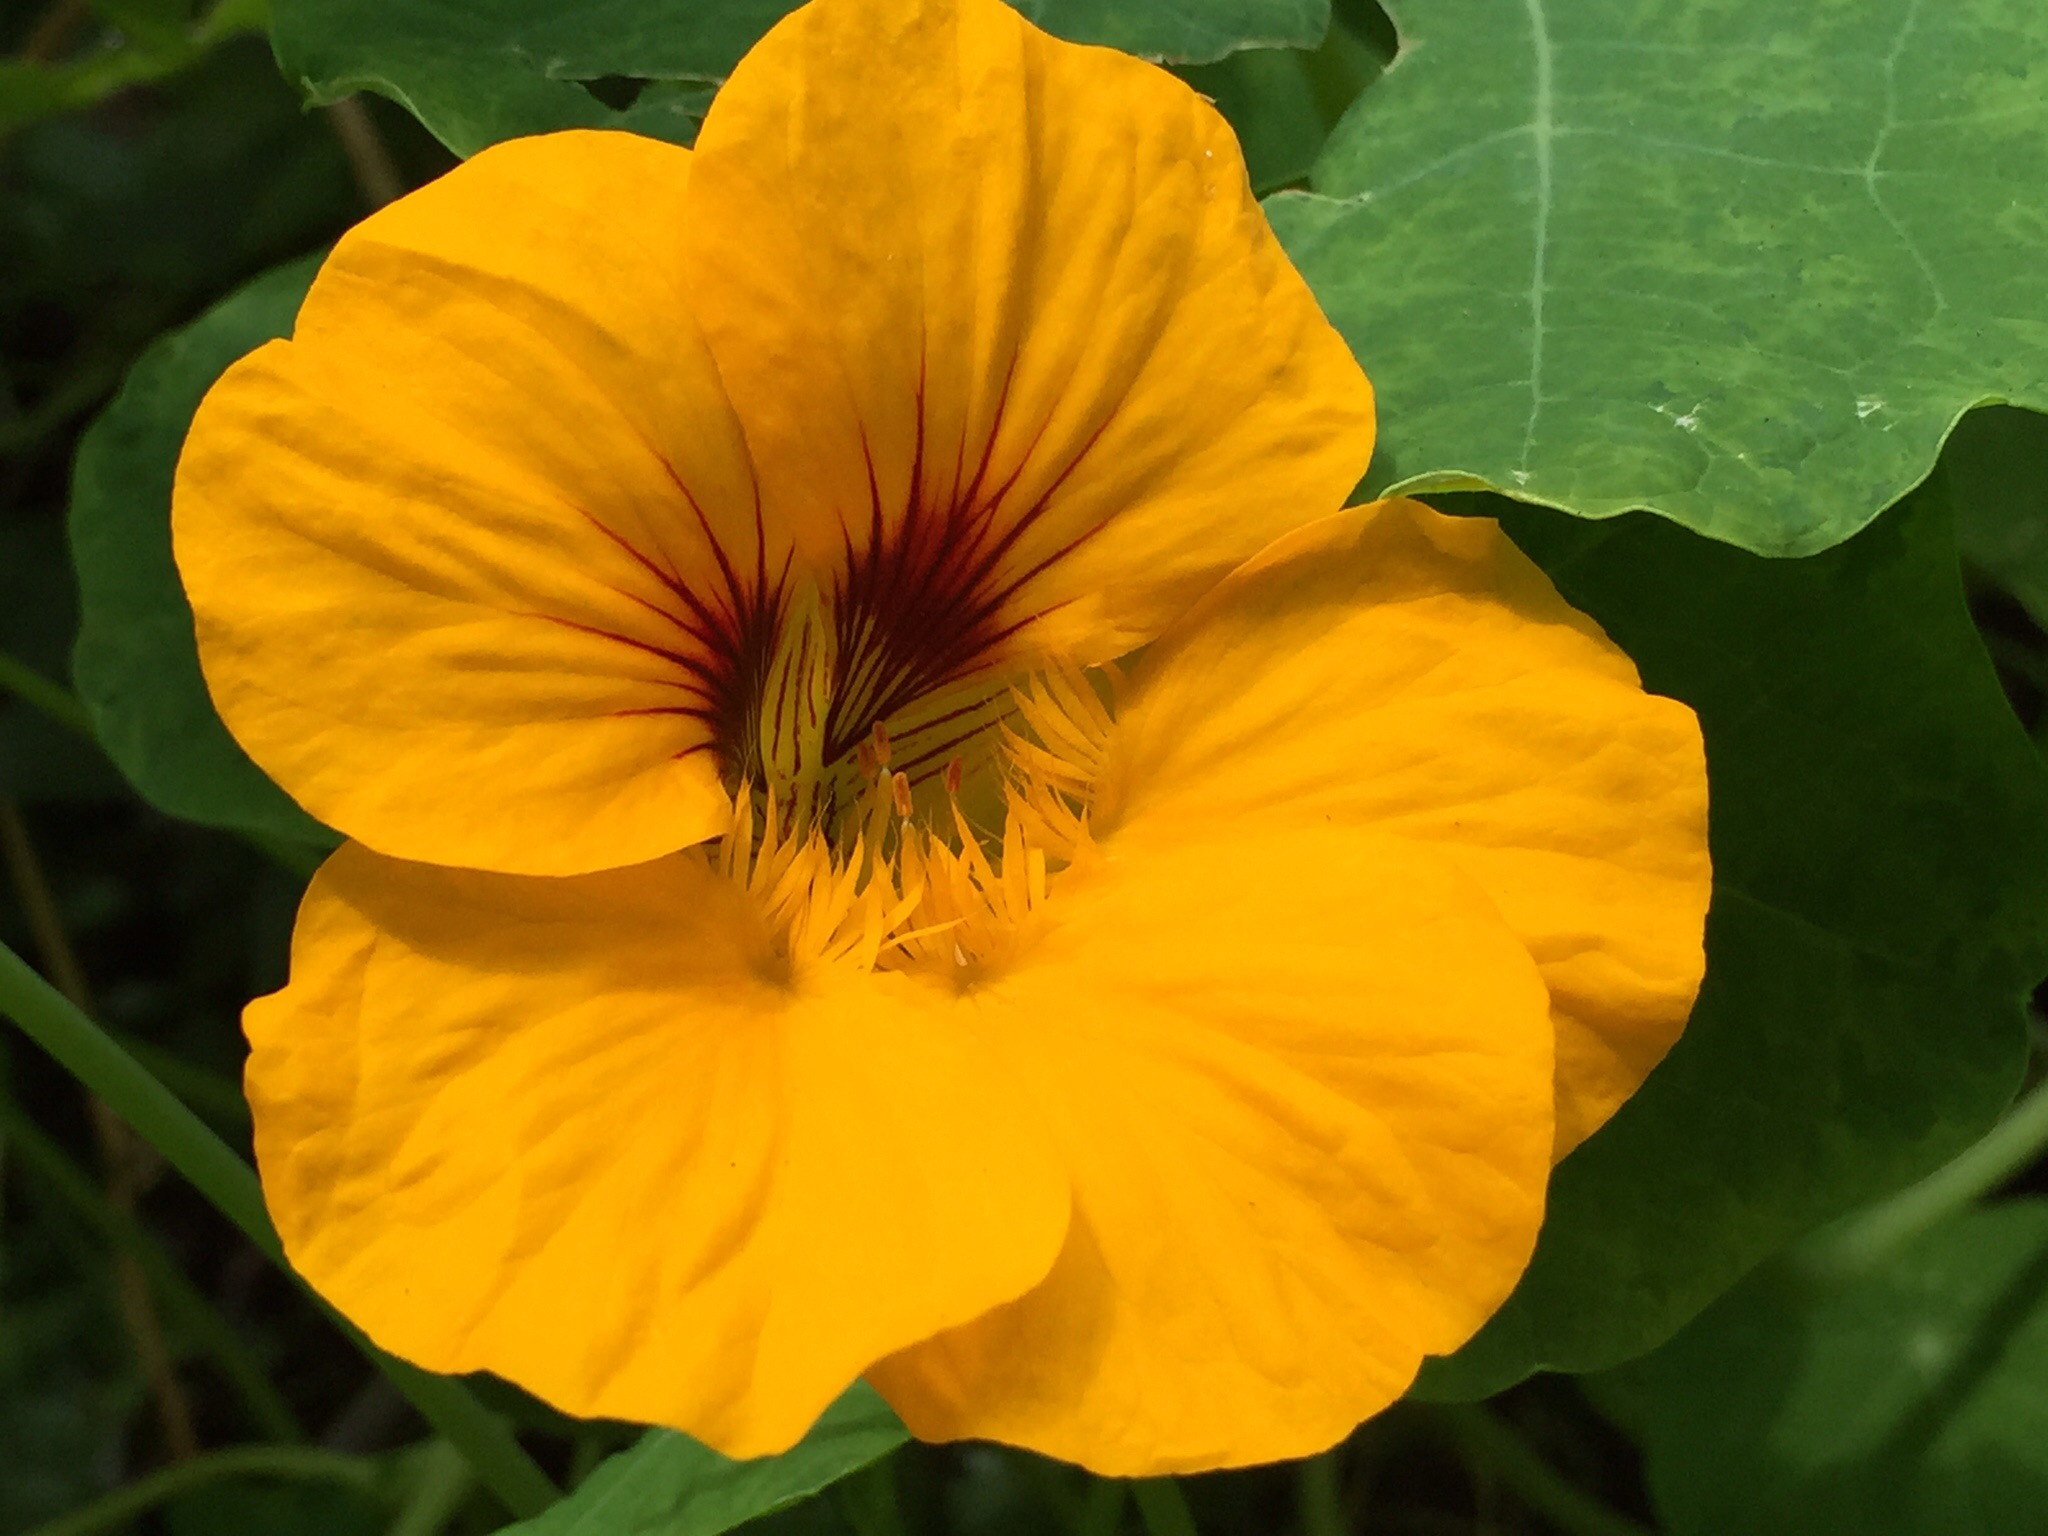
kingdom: Plantae
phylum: Tracheophyta
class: Magnoliopsida
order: Brassicales
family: Tropaeolaceae
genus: Tropaeolum
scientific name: Tropaeolum majus
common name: Nasturtium
